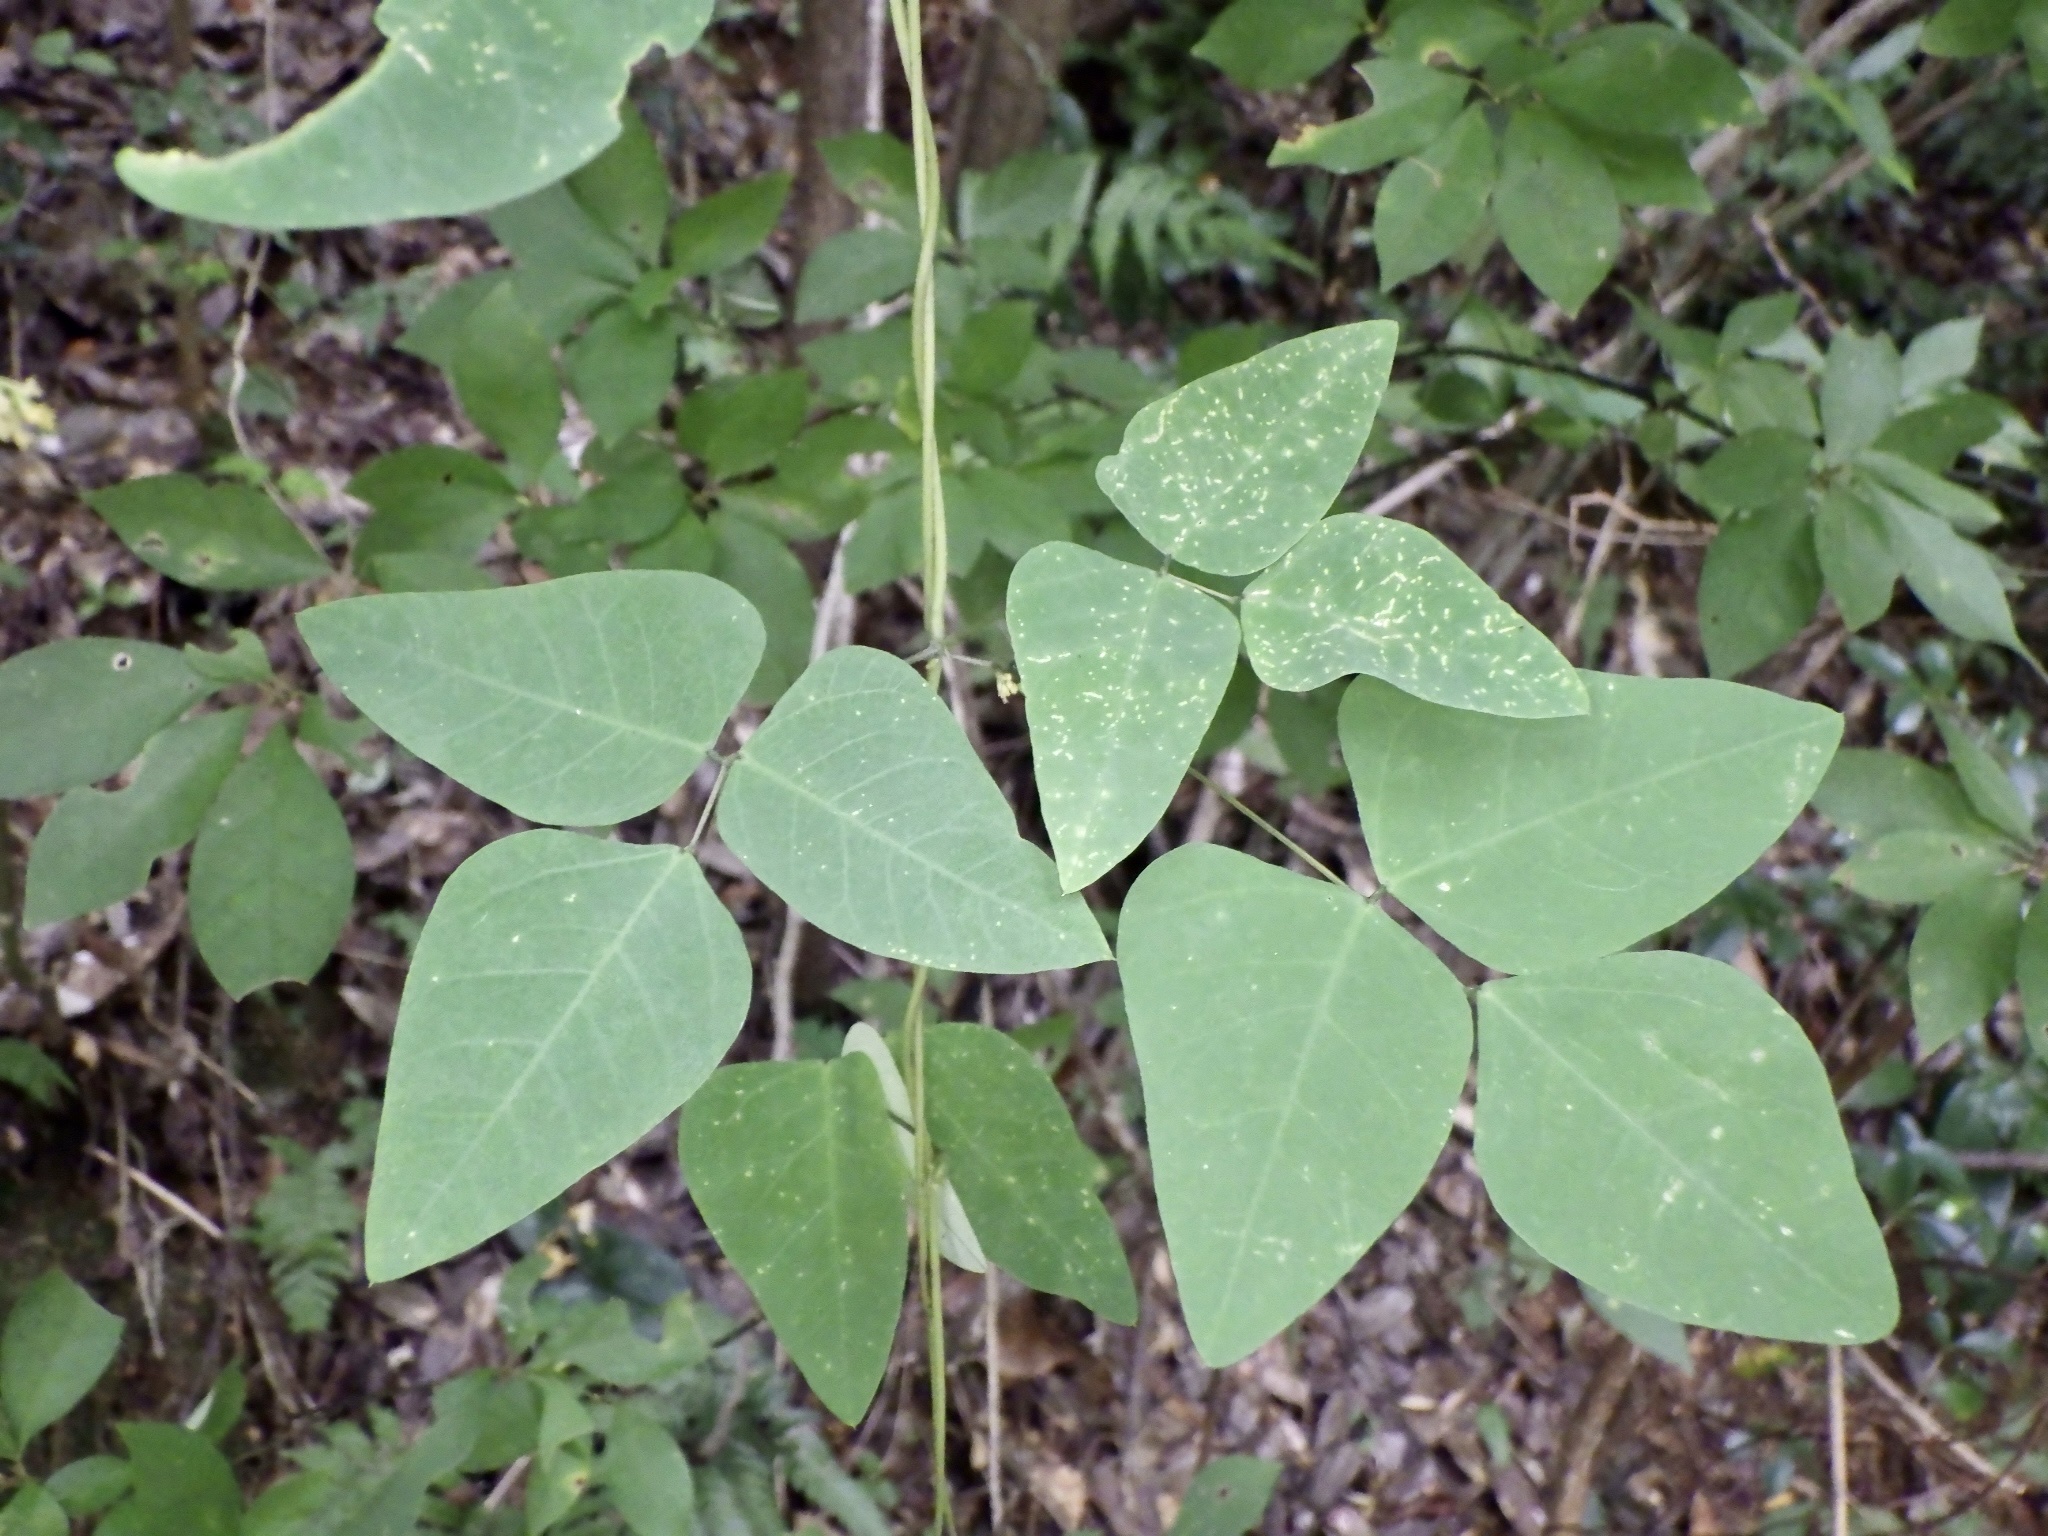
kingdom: Plantae
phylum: Tracheophyta
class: Magnoliopsida
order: Fabales
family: Fabaceae
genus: Dumasia
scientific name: Dumasia truncata
